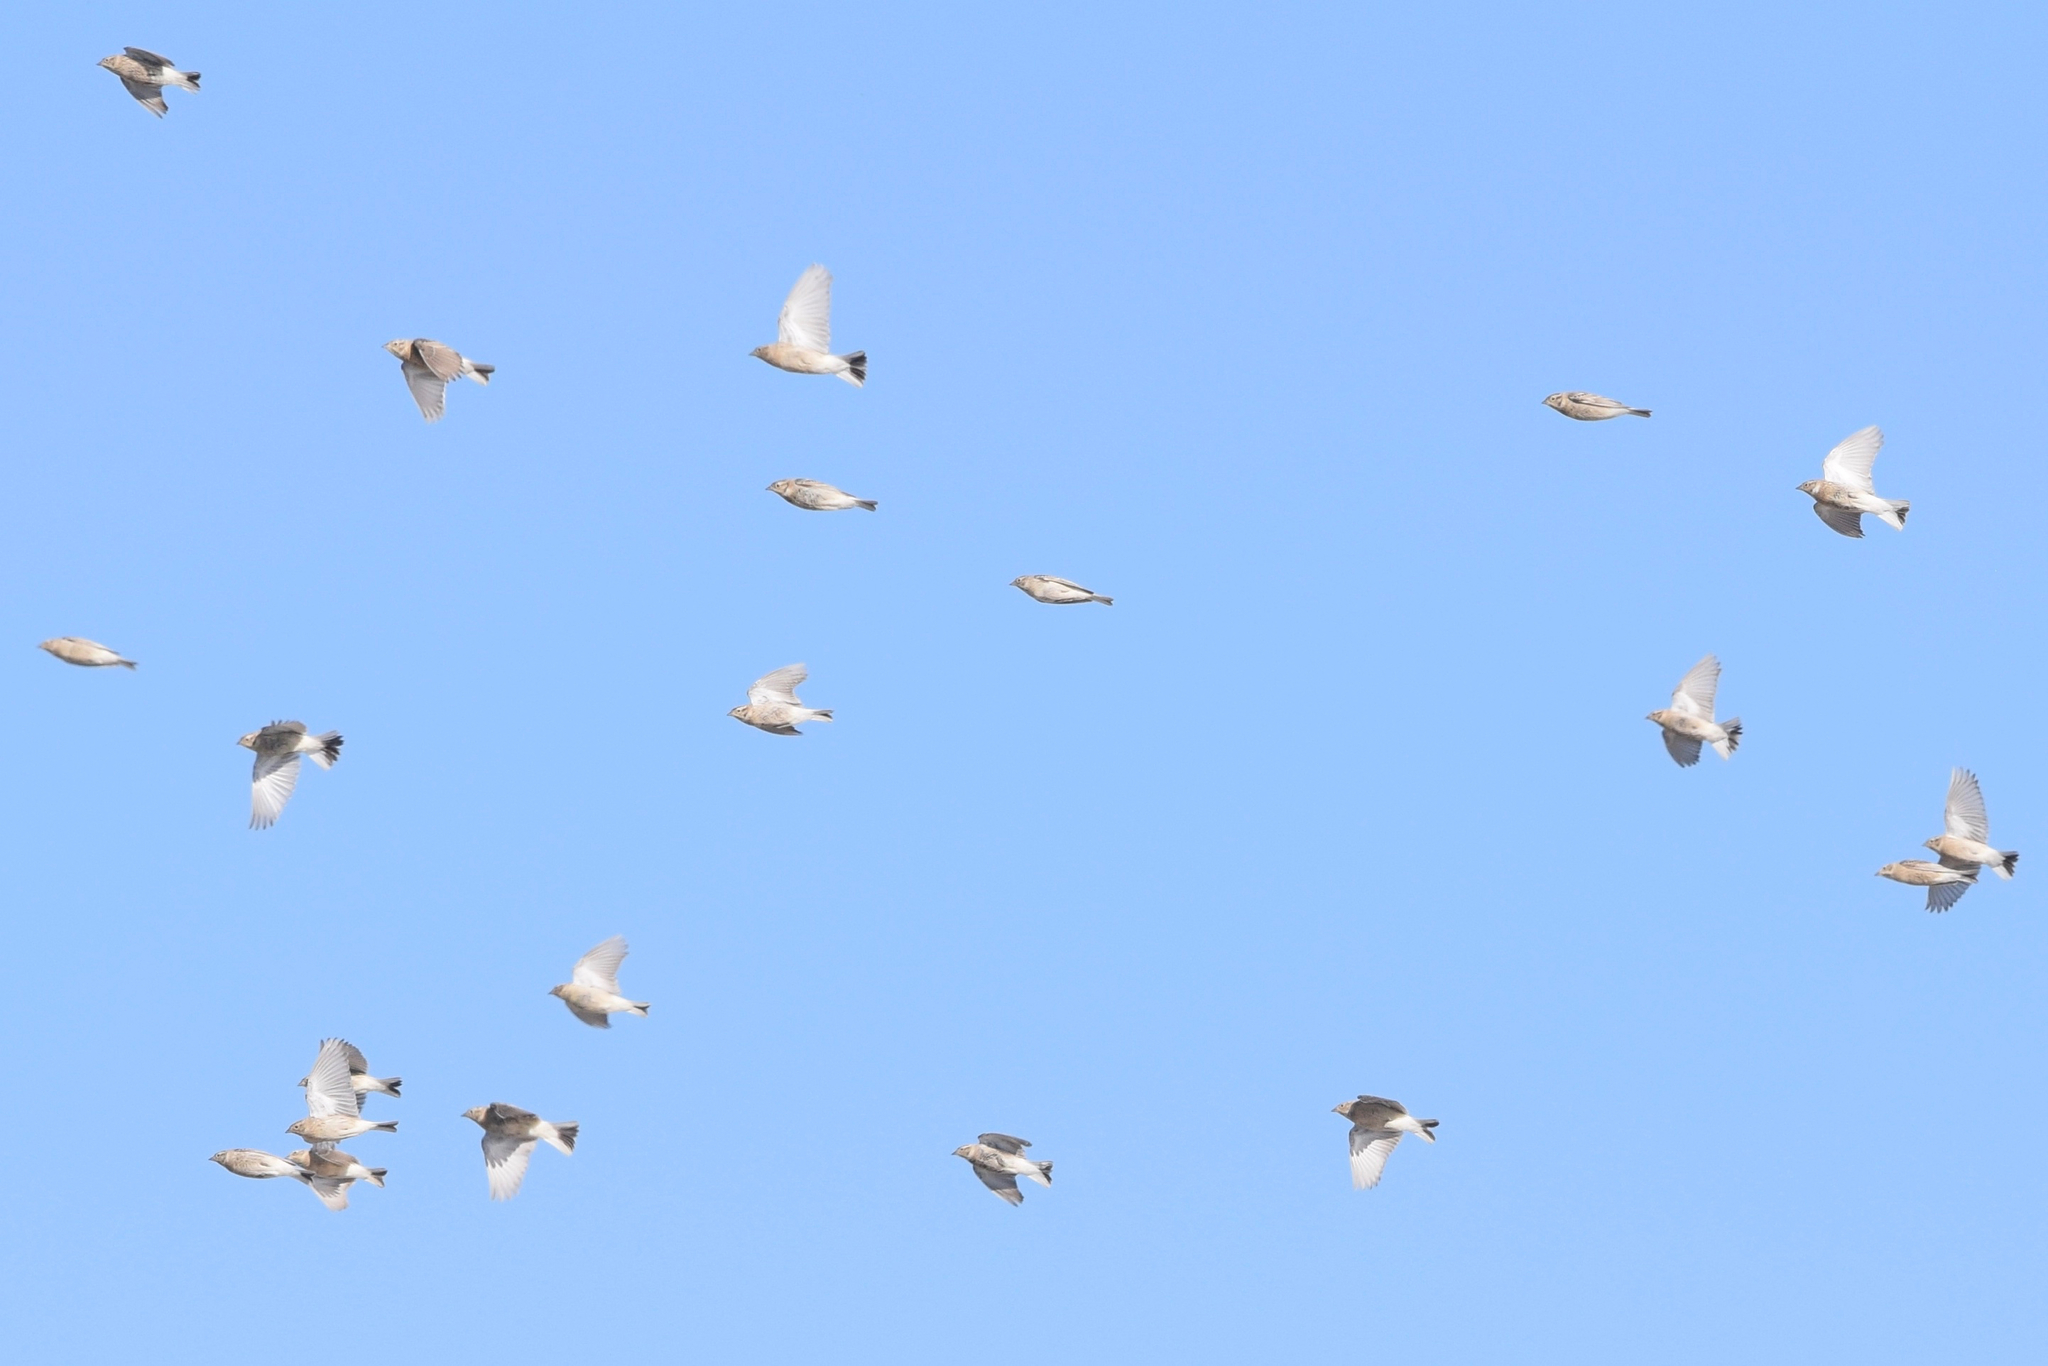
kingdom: Animalia
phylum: Chordata
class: Aves
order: Passeriformes
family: Calcariidae
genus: Calcarius
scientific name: Calcarius ornatus
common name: Chestnut-collared longspur
